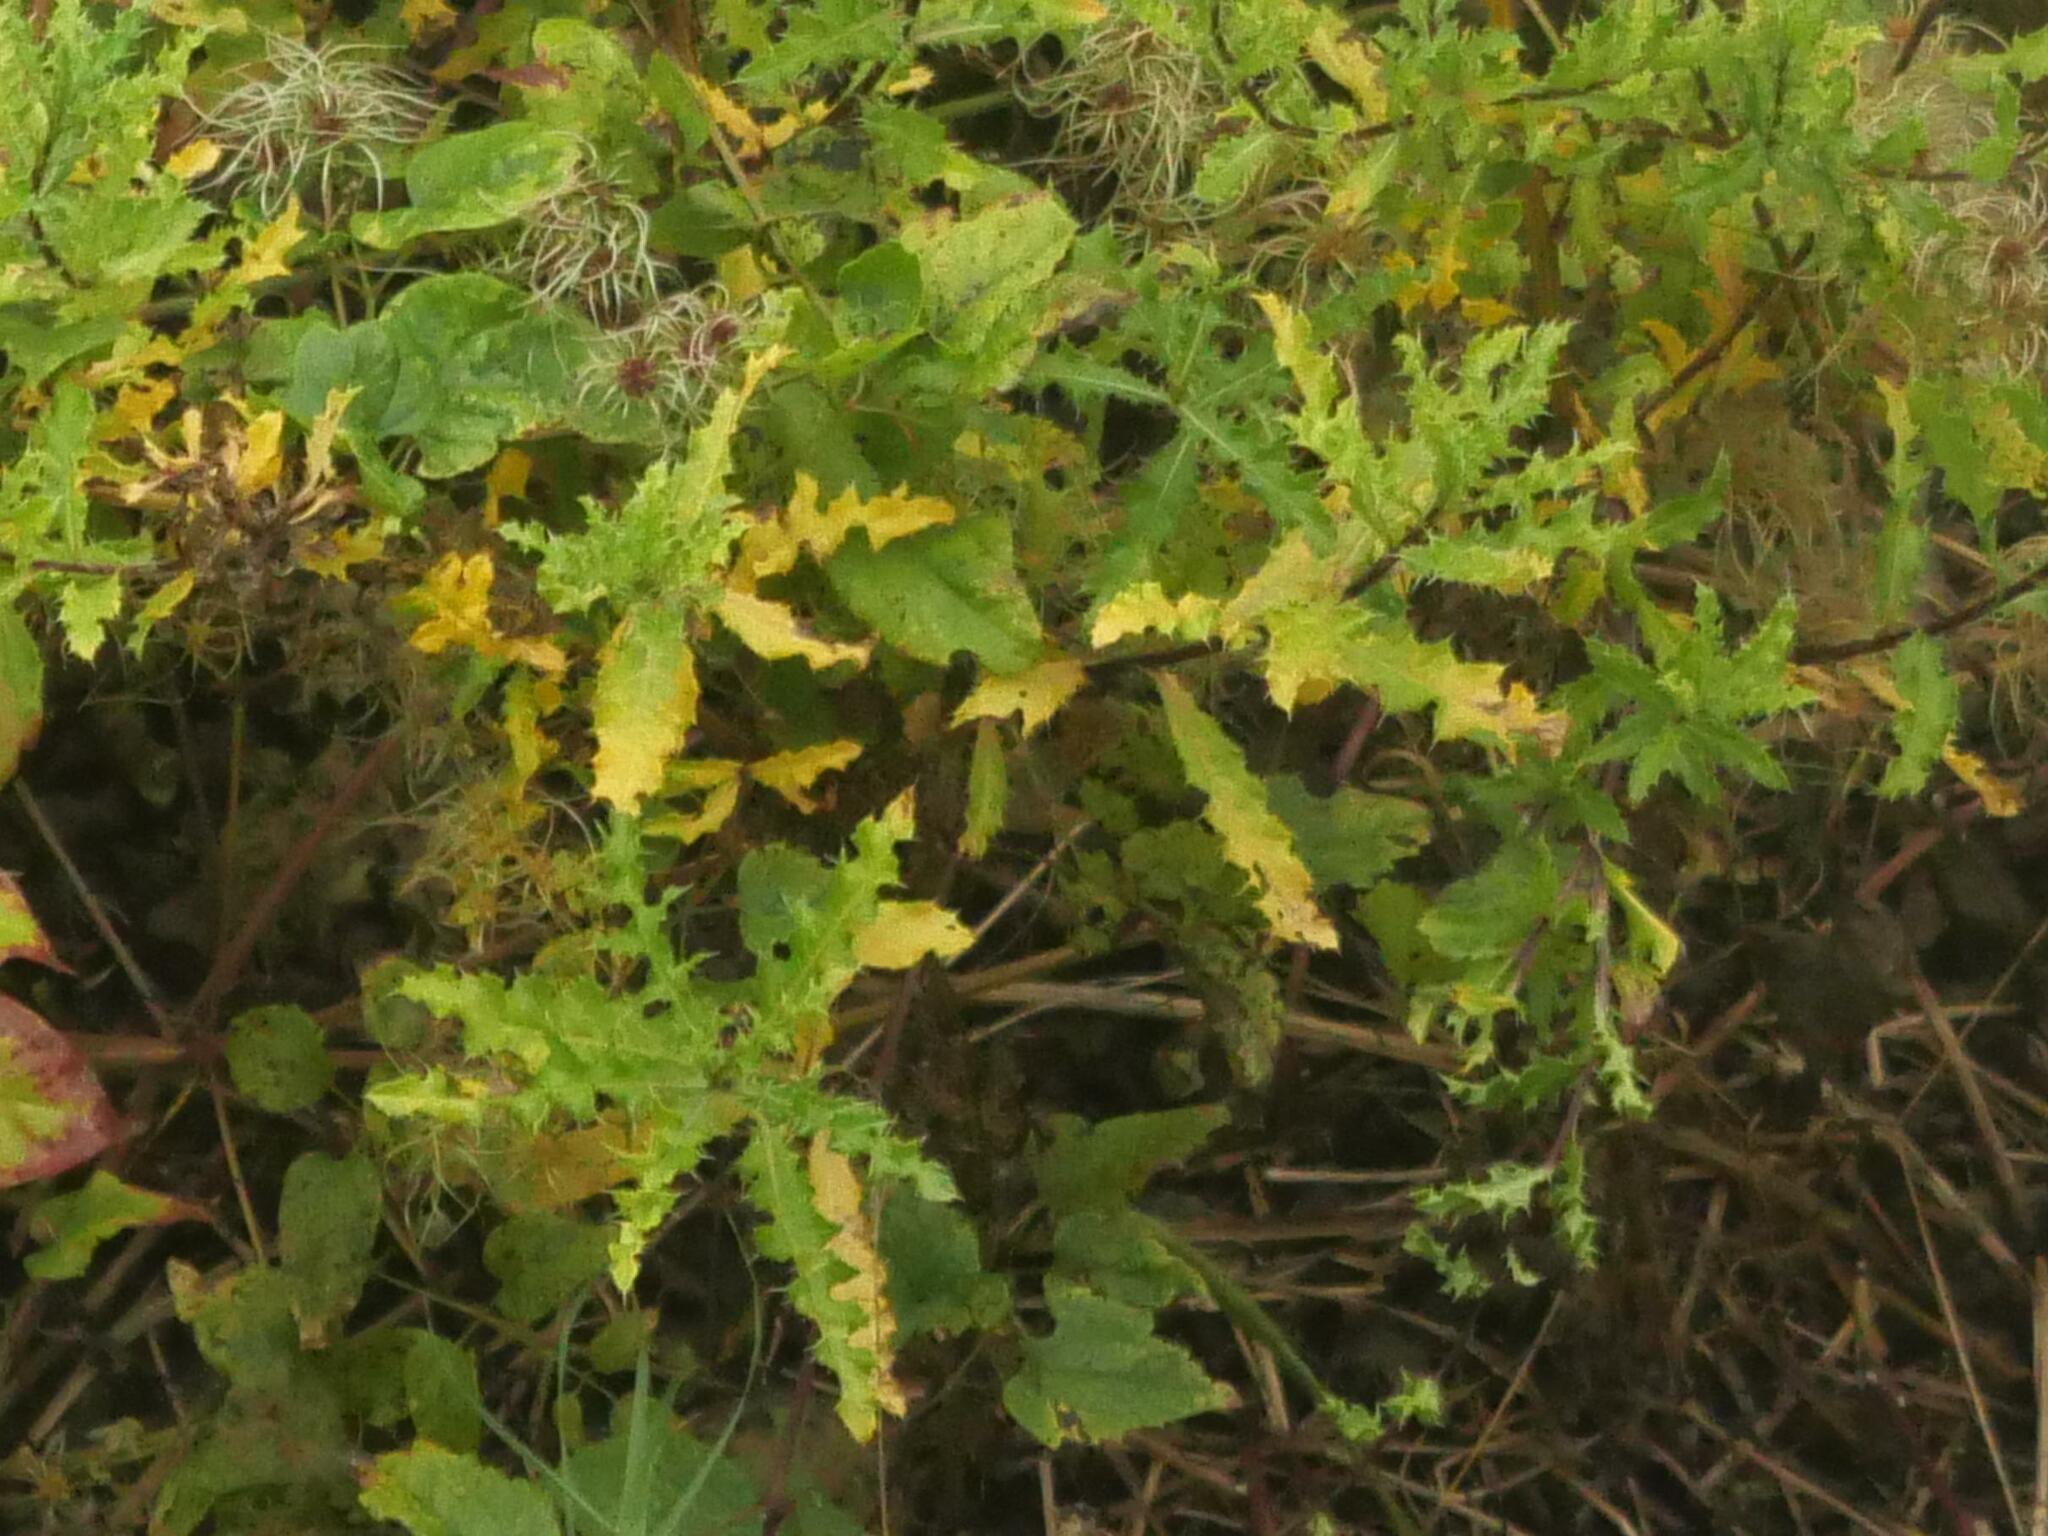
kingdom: Plantae
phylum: Tracheophyta
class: Magnoliopsida
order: Asterales
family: Asteraceae
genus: Cirsium
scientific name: Cirsium arvense
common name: Creeping thistle
